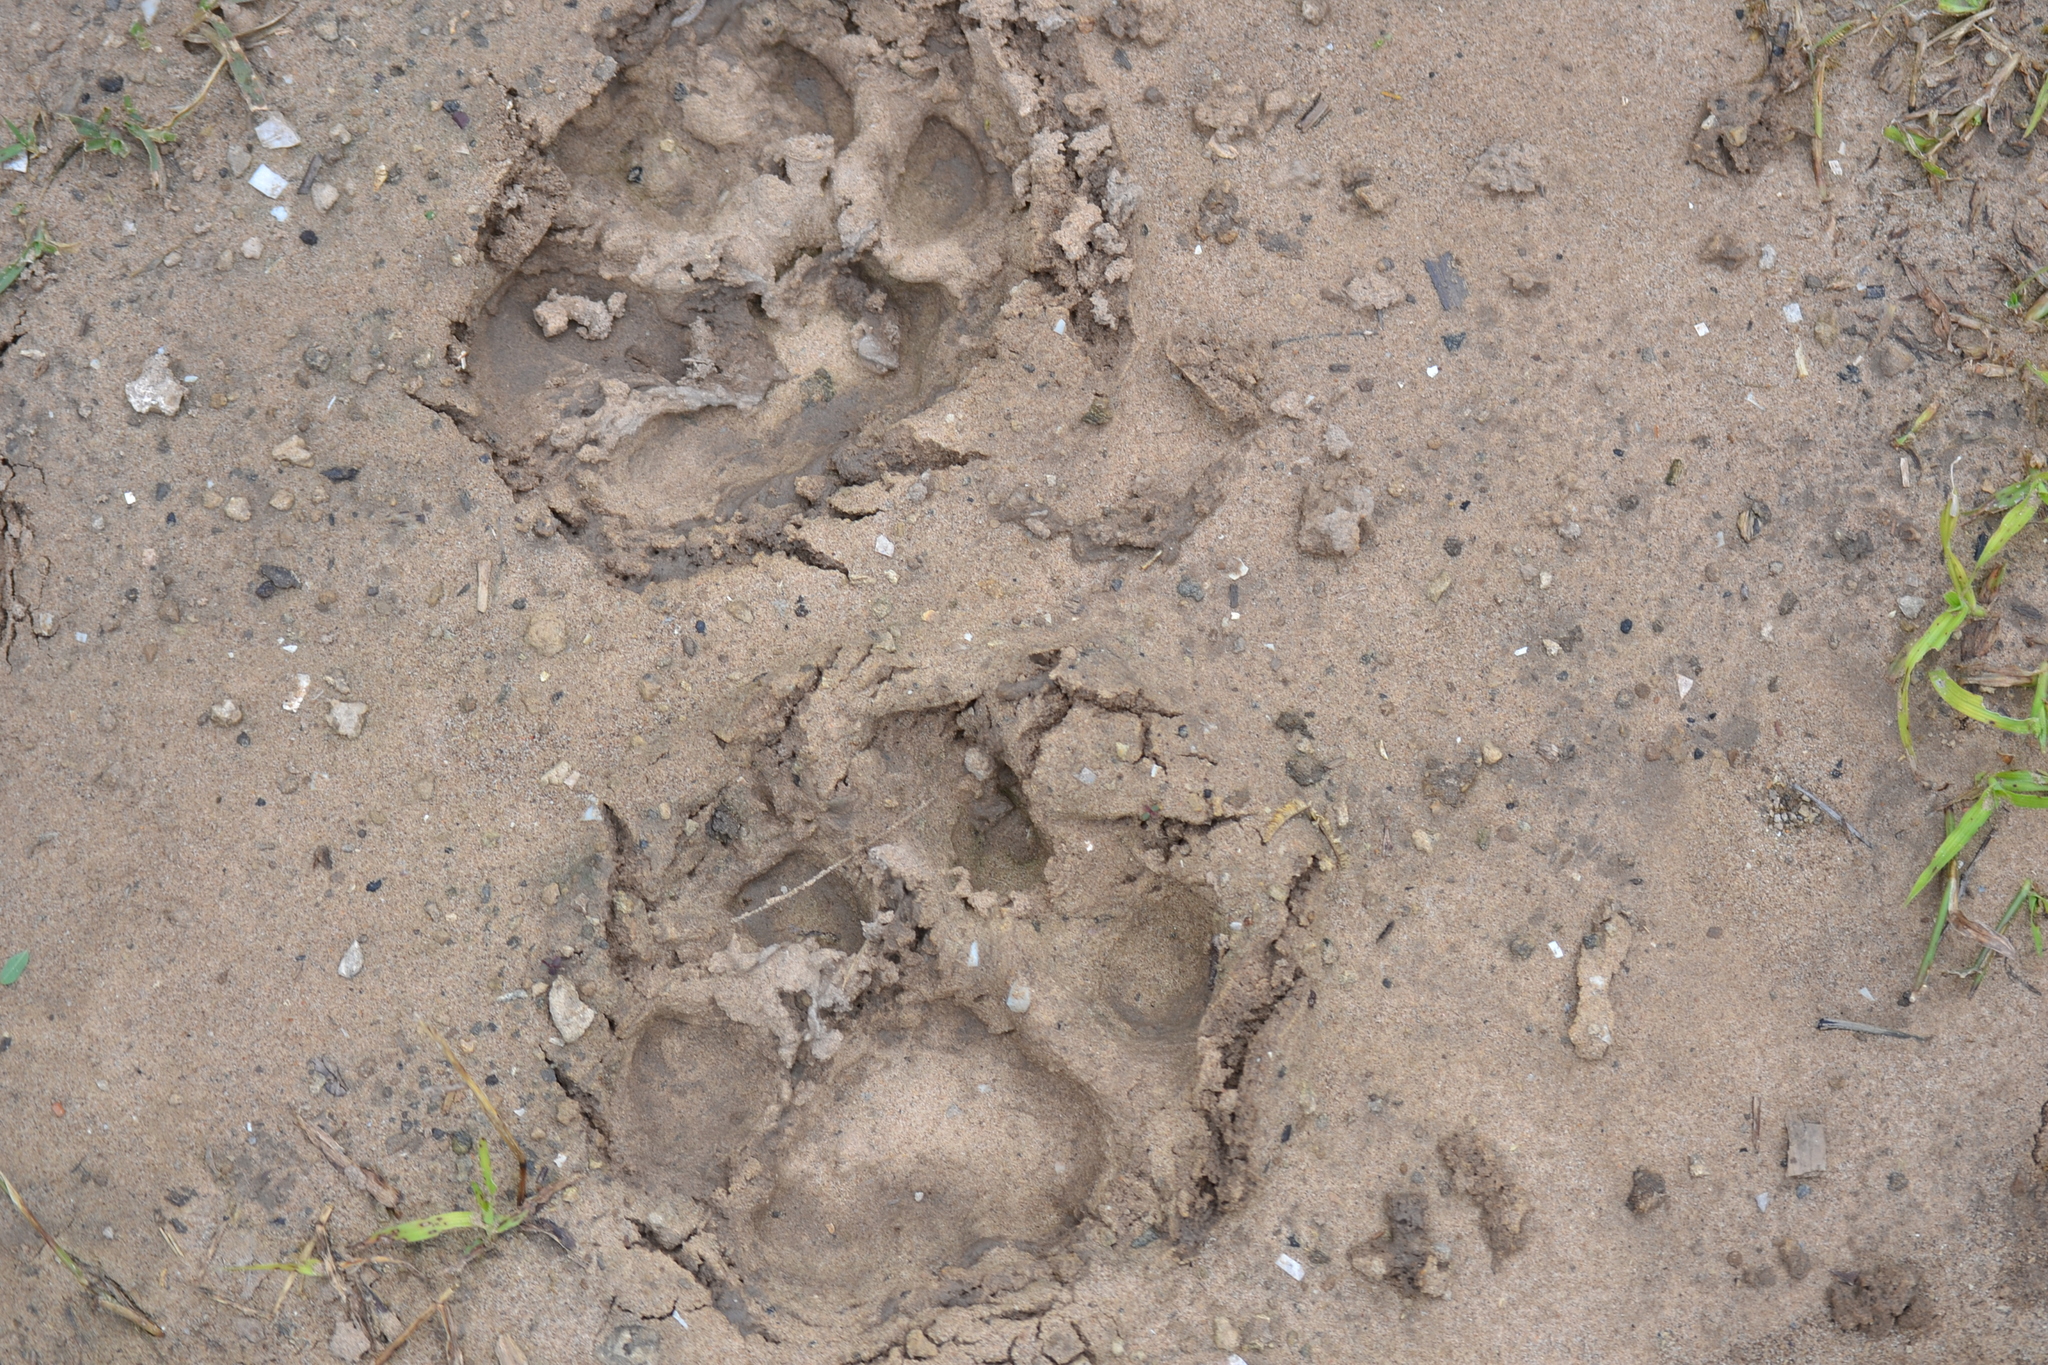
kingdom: Animalia
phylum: Chordata
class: Mammalia
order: Carnivora
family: Felidae
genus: Panthera
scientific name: Panthera onca
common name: Jaguar
